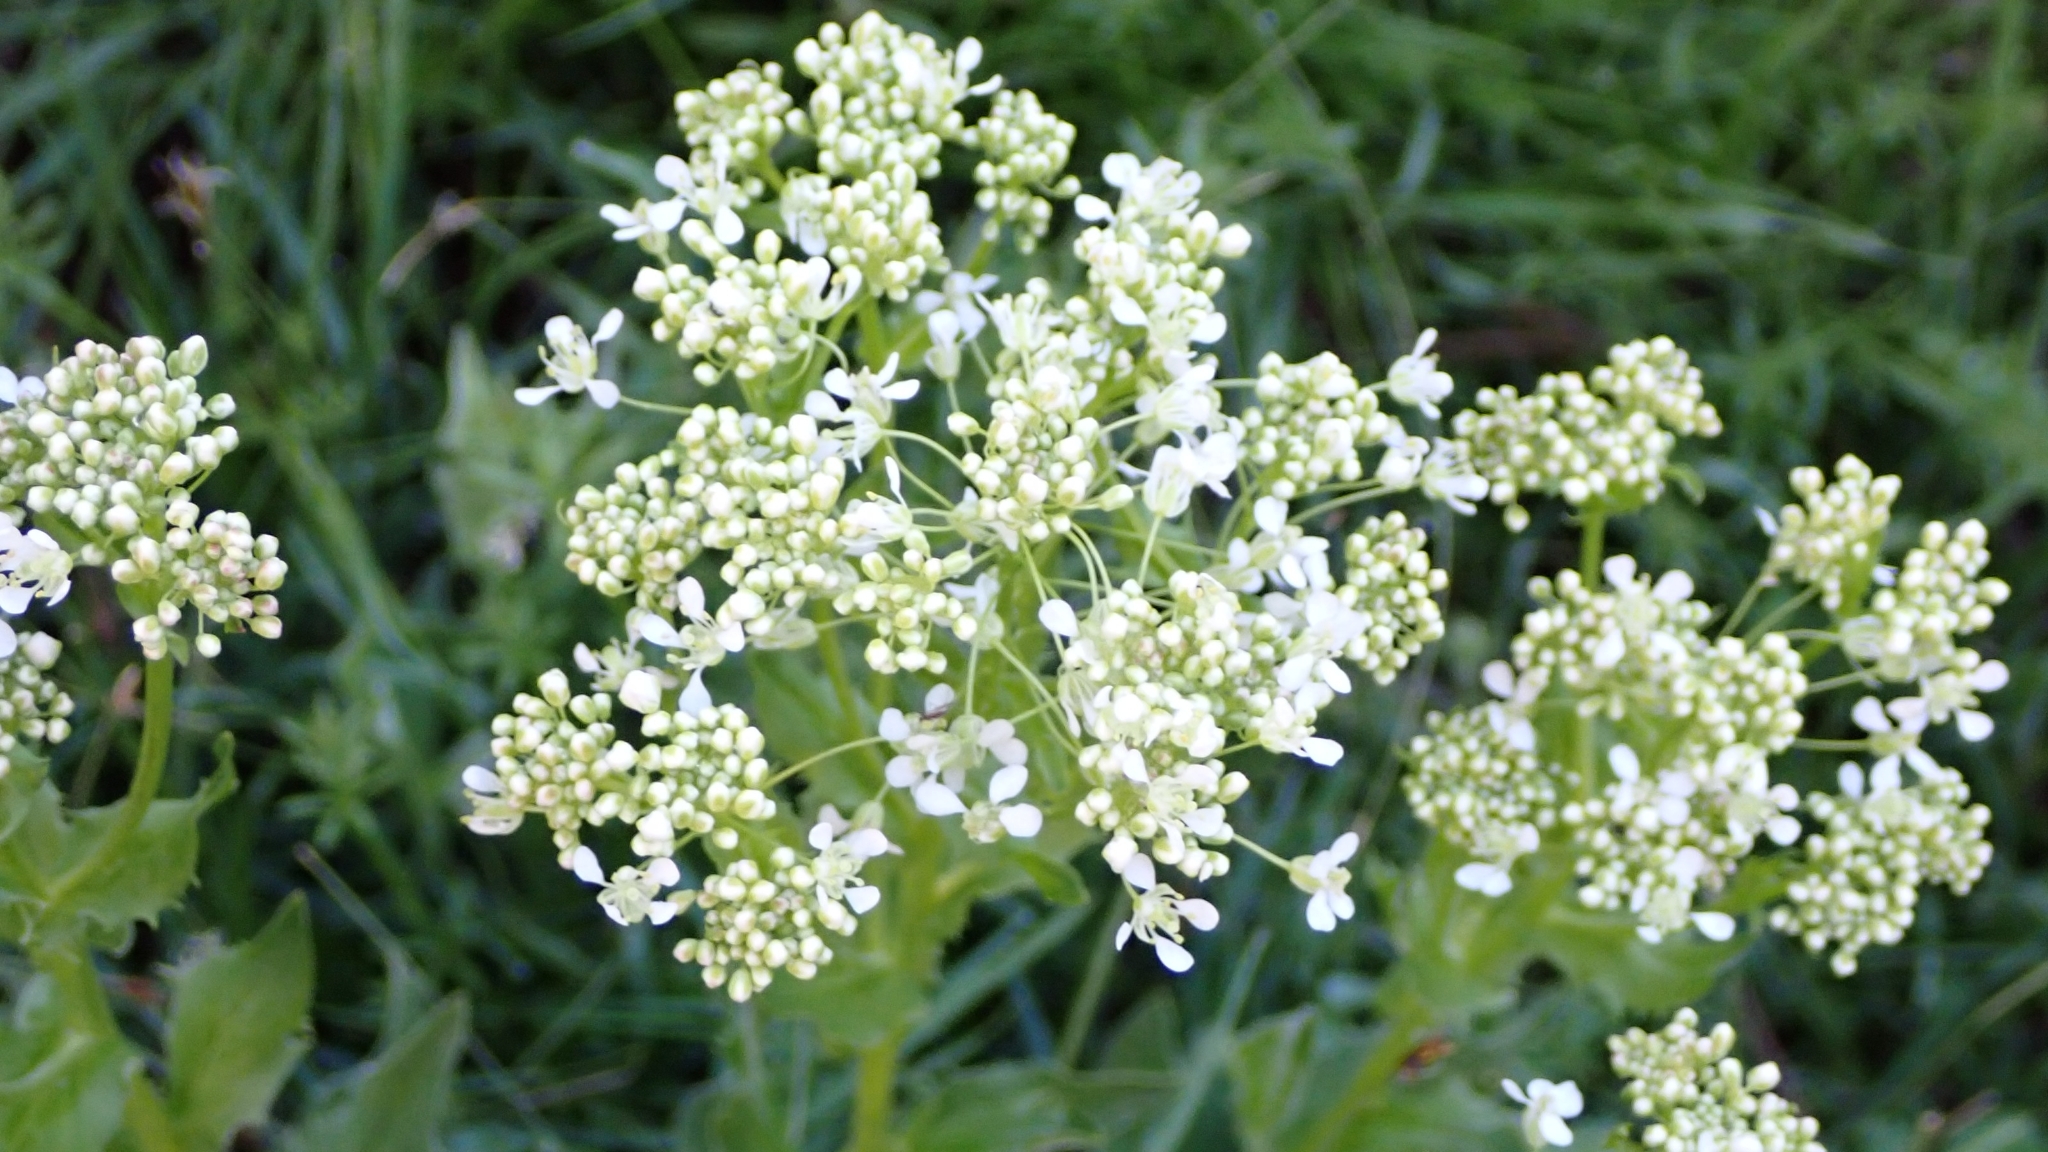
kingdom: Plantae
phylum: Tracheophyta
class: Magnoliopsida
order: Brassicales
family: Brassicaceae
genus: Lepidium
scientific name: Lepidium draba
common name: Hoary cress
